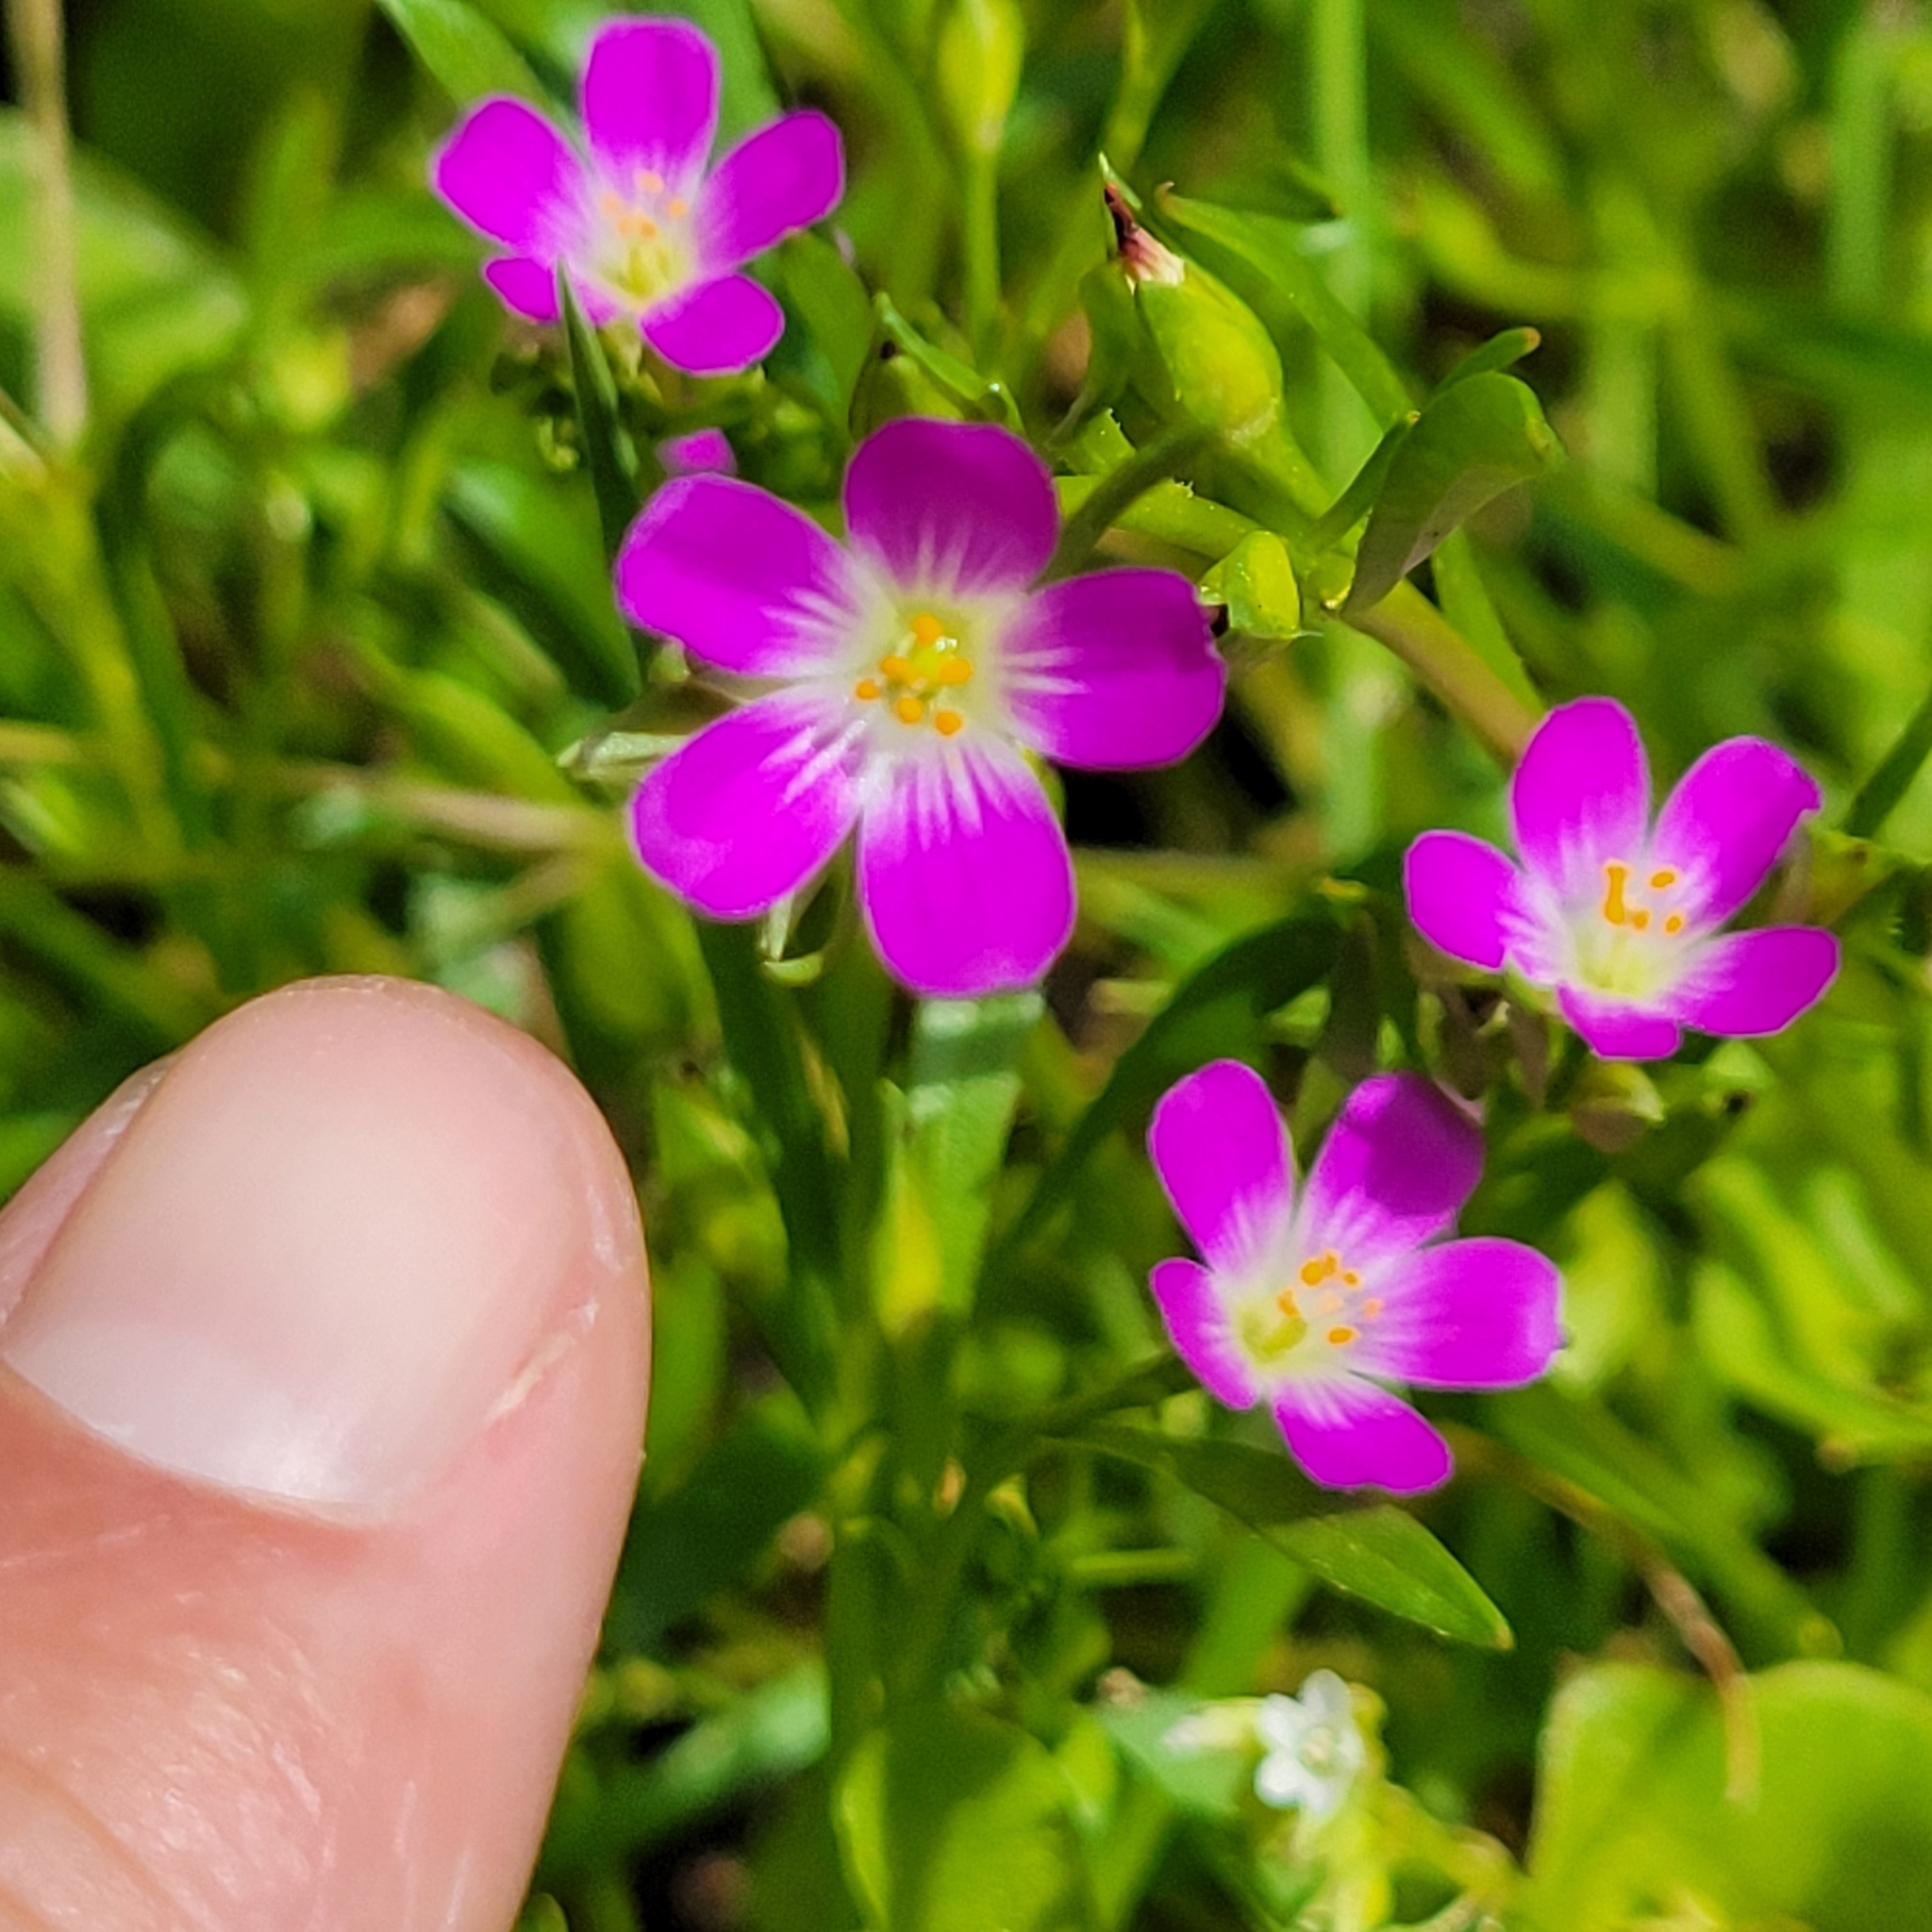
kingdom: Plantae
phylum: Tracheophyta
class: Magnoliopsida
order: Caryophyllales
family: Montiaceae
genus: Calandrinia
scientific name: Calandrinia menziesii
